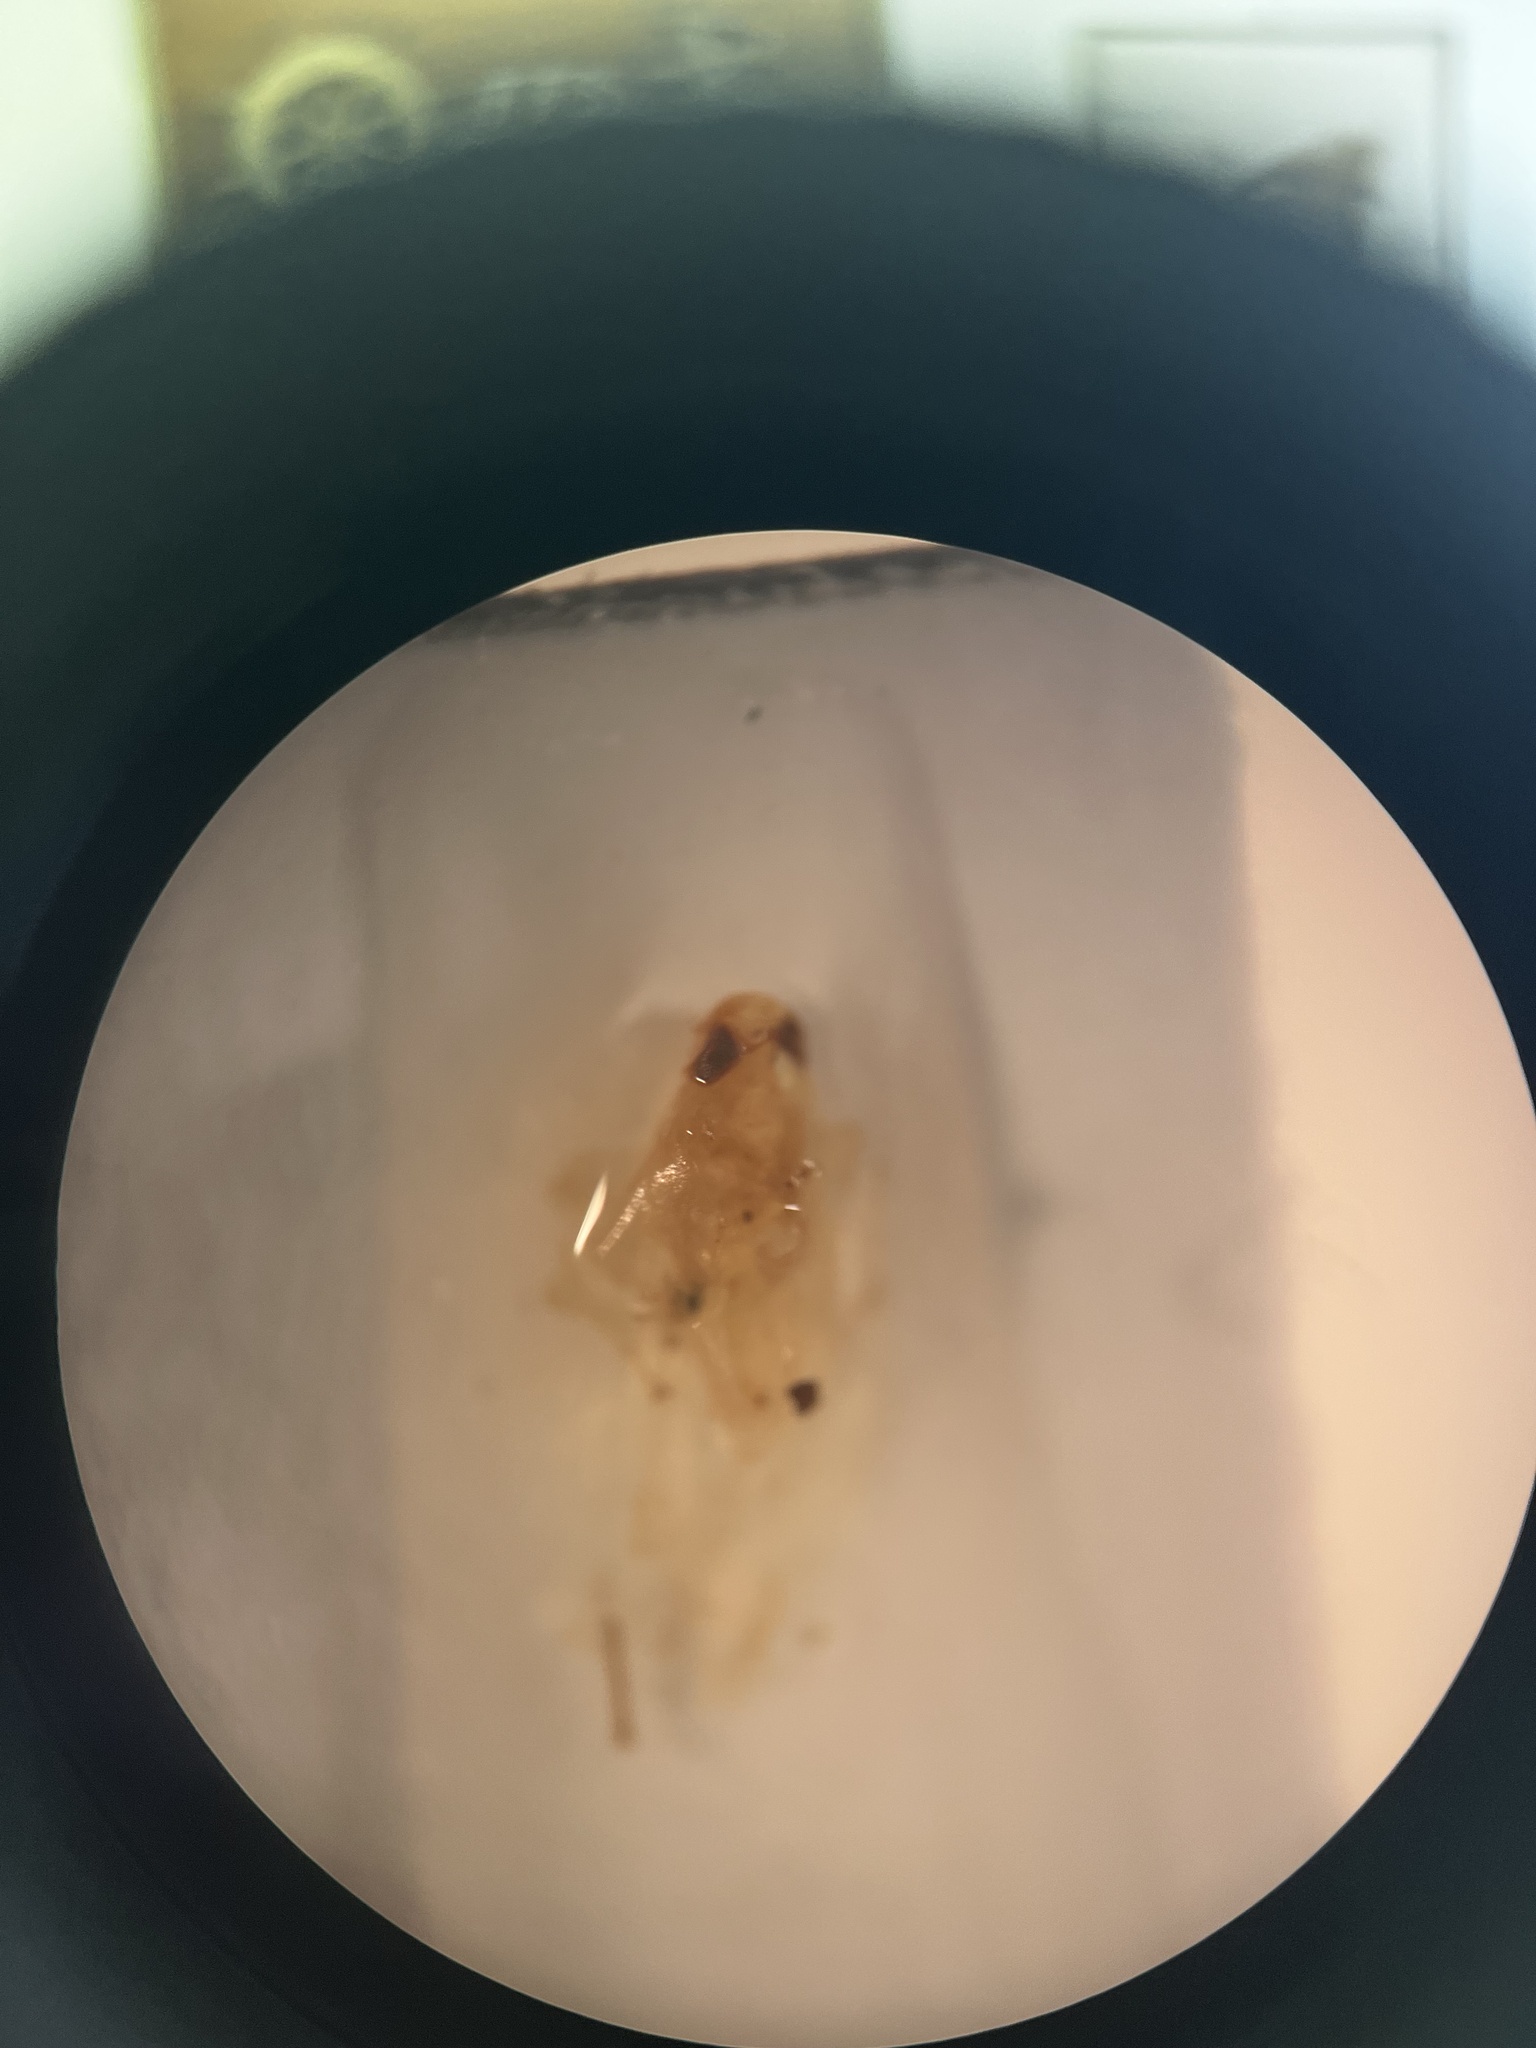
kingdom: Animalia
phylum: Arthropoda
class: Insecta
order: Hemiptera
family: Cicadellidae
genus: Edwardsiana
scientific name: Edwardsiana lamellaris
